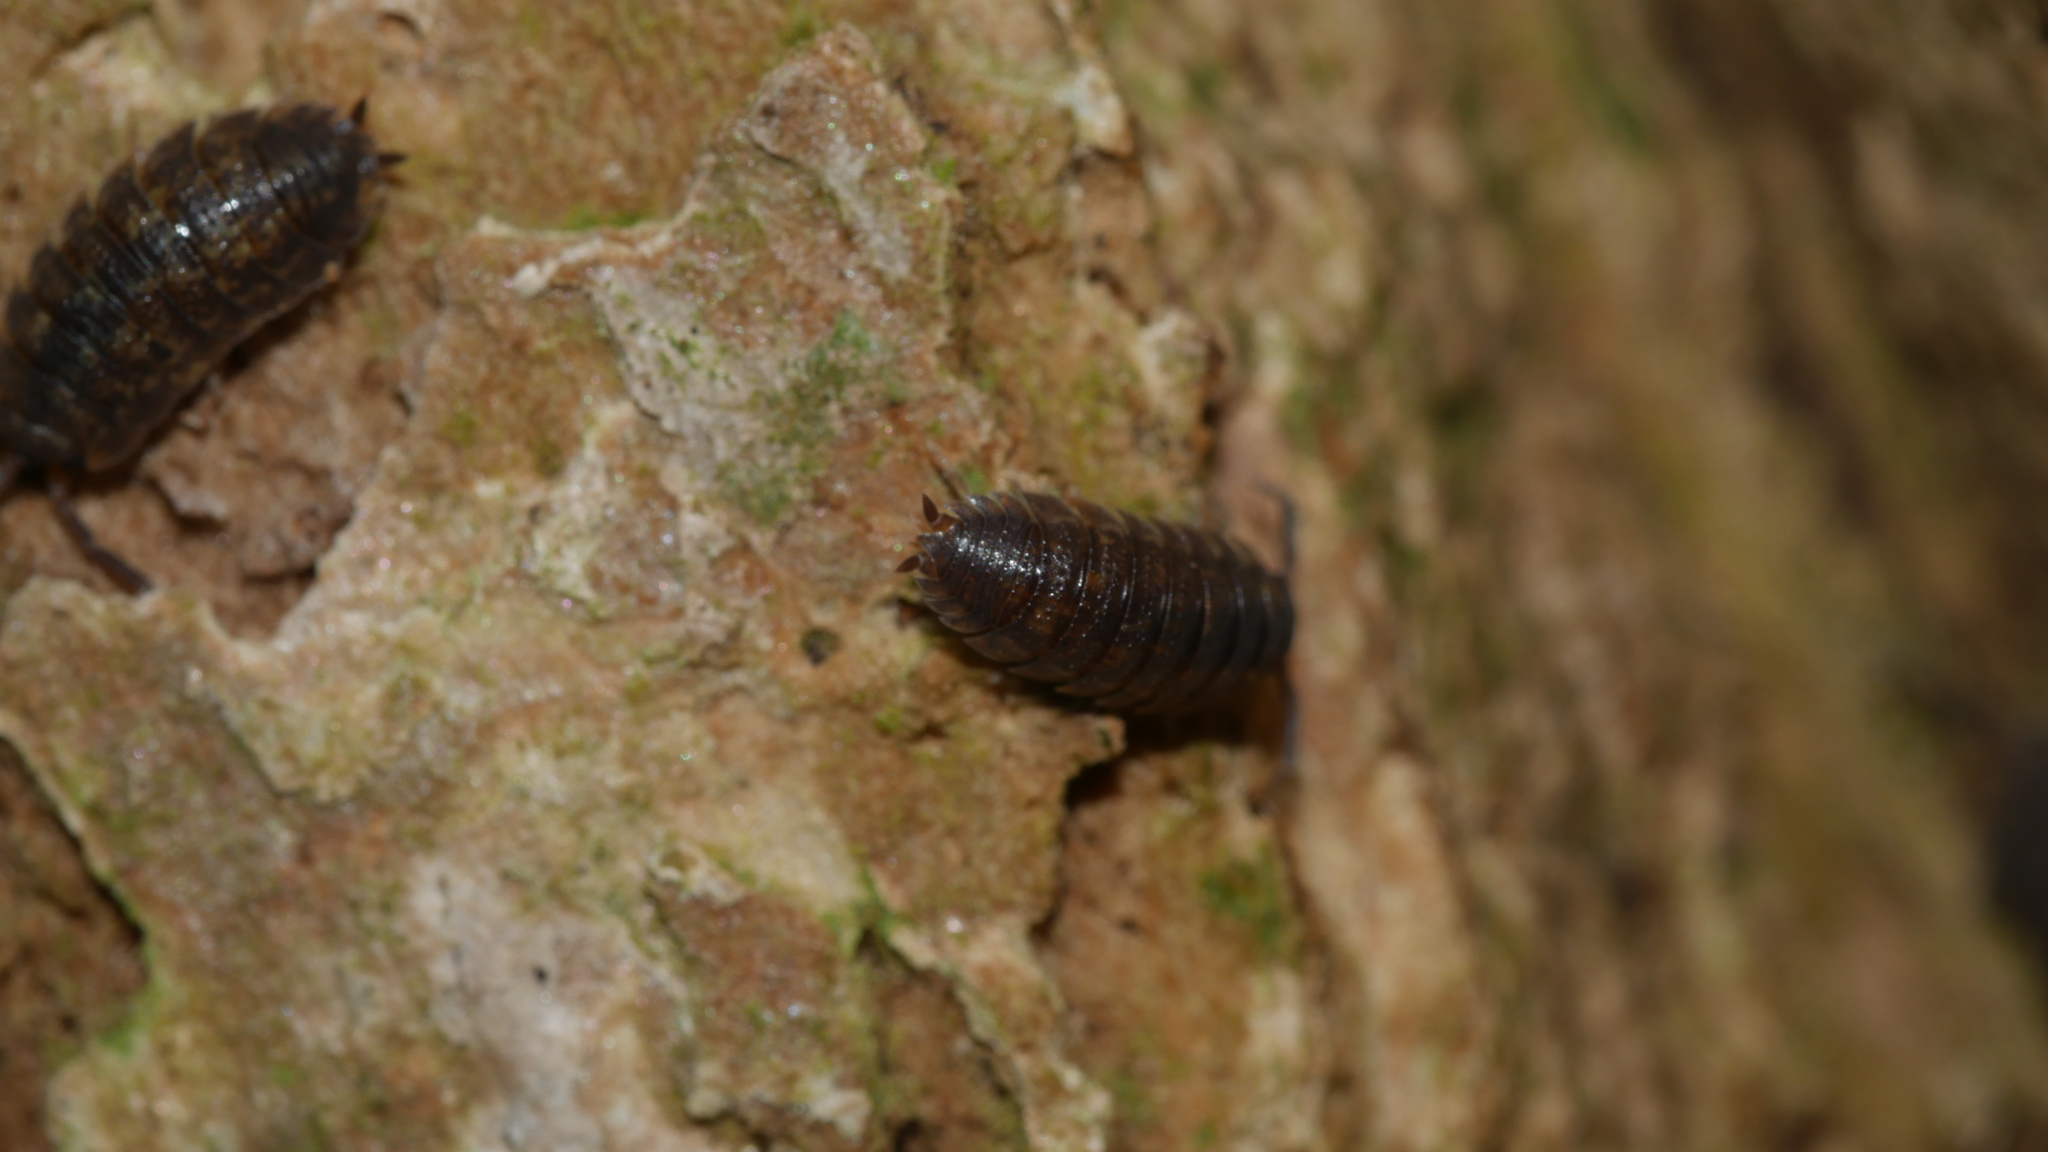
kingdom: Animalia
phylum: Arthropoda
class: Malacostraca
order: Isopoda
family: Porcellionidae
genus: Porcellio
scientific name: Porcellio scaber
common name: Common rough woodlouse
